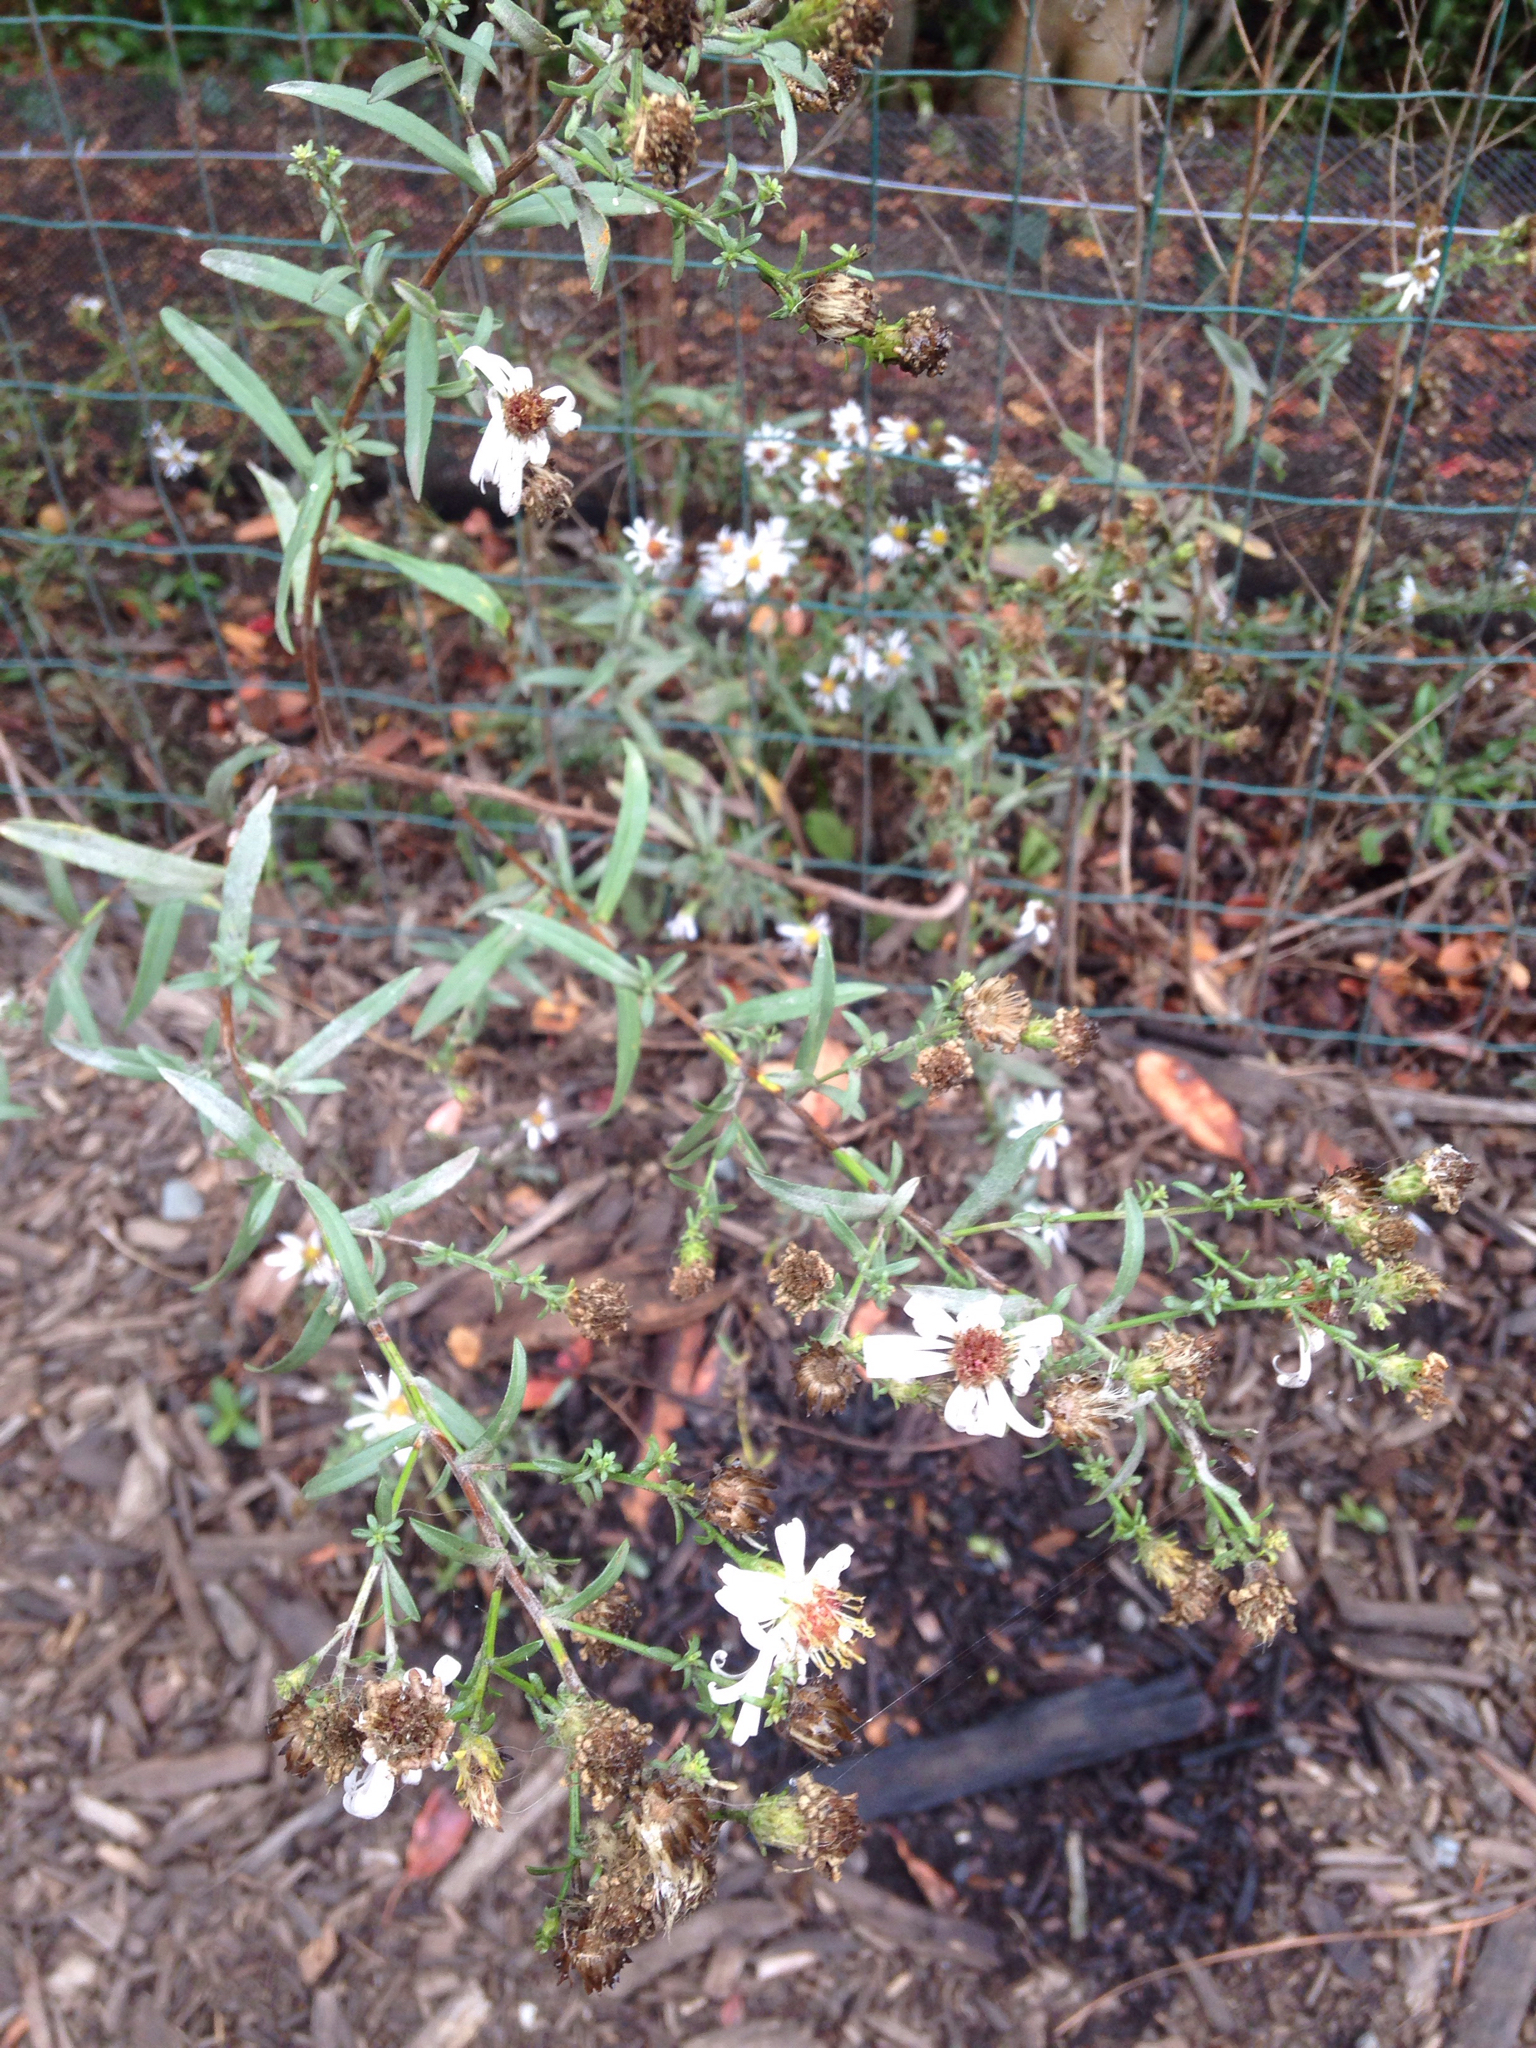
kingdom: Plantae
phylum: Tracheophyta
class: Magnoliopsida
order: Asterales
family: Asteraceae
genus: Symphyotrichum
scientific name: Symphyotrichum chilense
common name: Pacific aster
